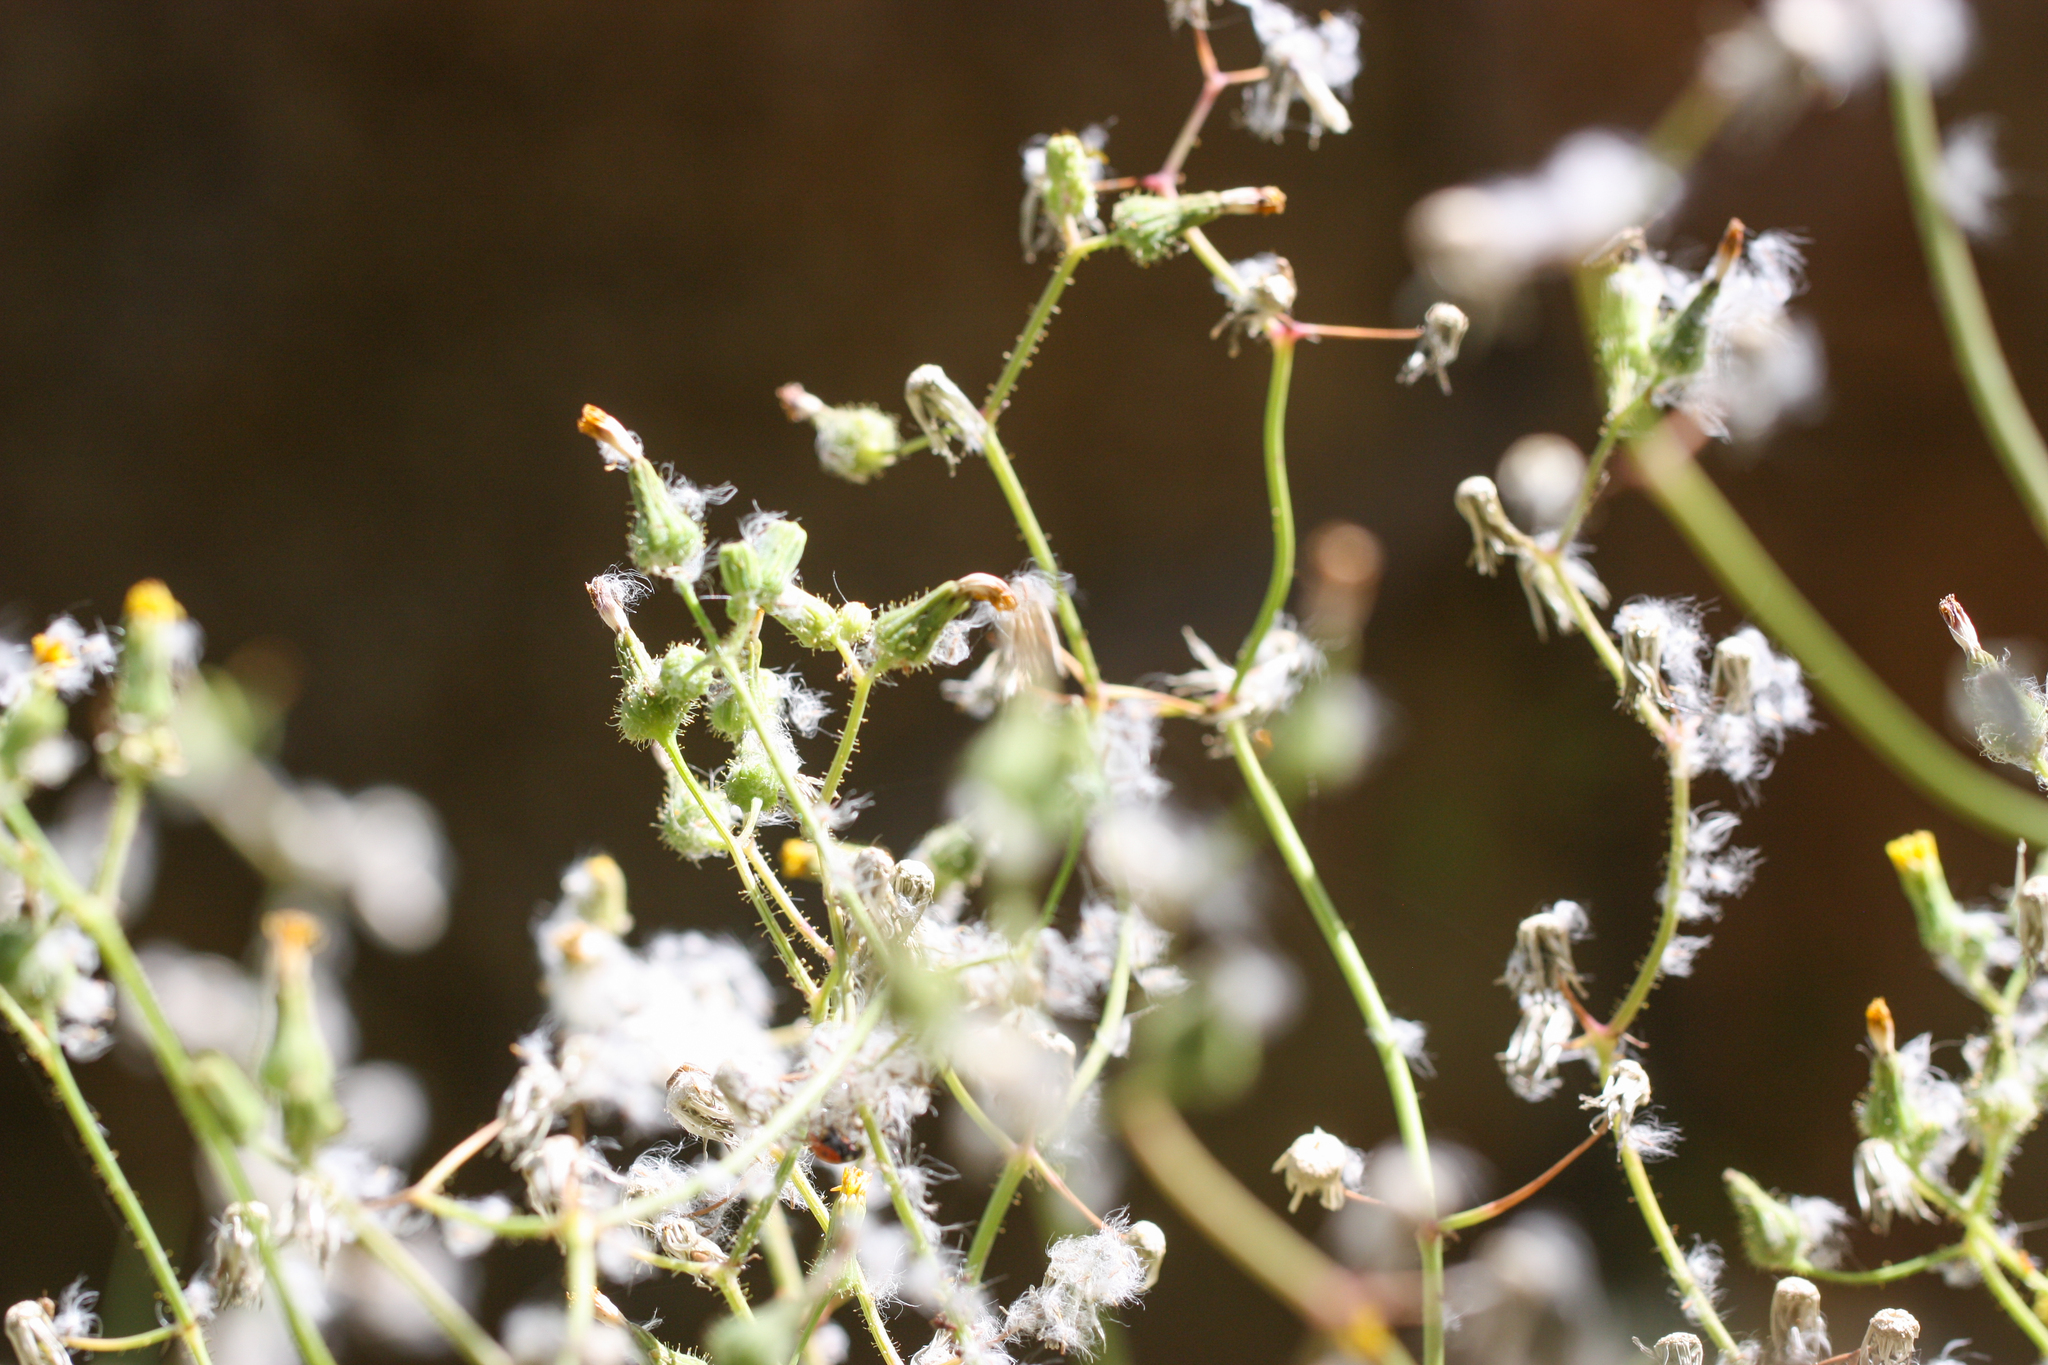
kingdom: Plantae
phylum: Tracheophyta
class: Magnoliopsida
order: Asterales
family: Asteraceae
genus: Sonchus
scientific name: Sonchus oleraceus
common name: Common sowthistle
